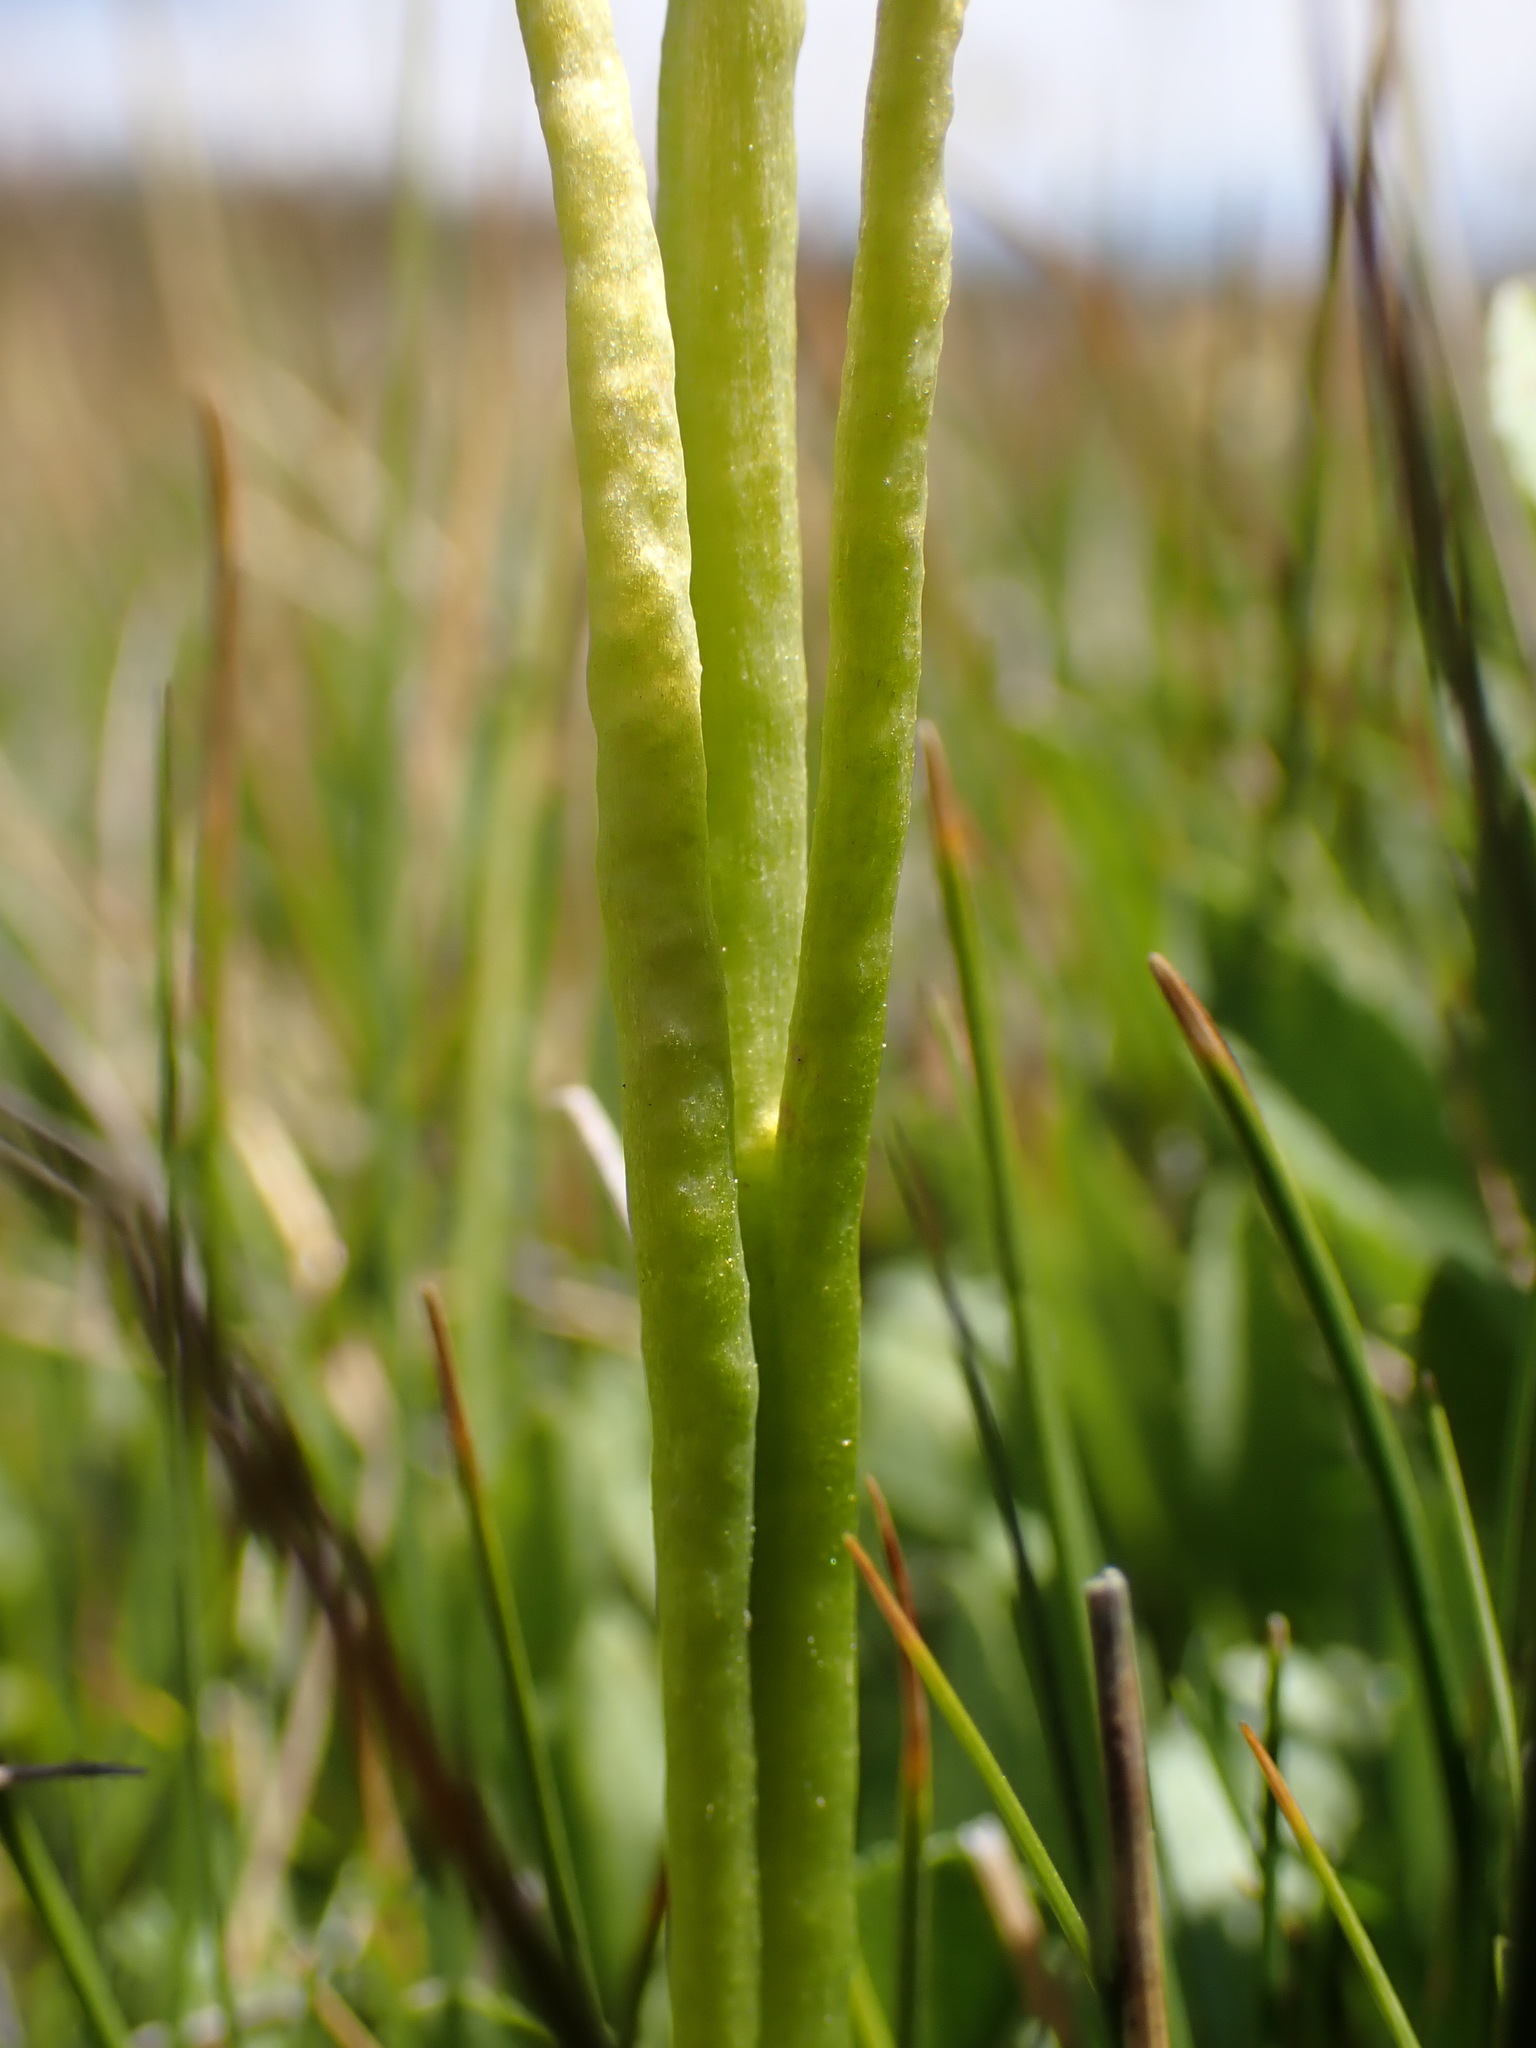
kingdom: Plantae
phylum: Tracheophyta
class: Polypodiopsida
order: Ophioglossales
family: Ophioglossaceae
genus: Botrychium
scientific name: Botrychium simplex
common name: Least moonwort
